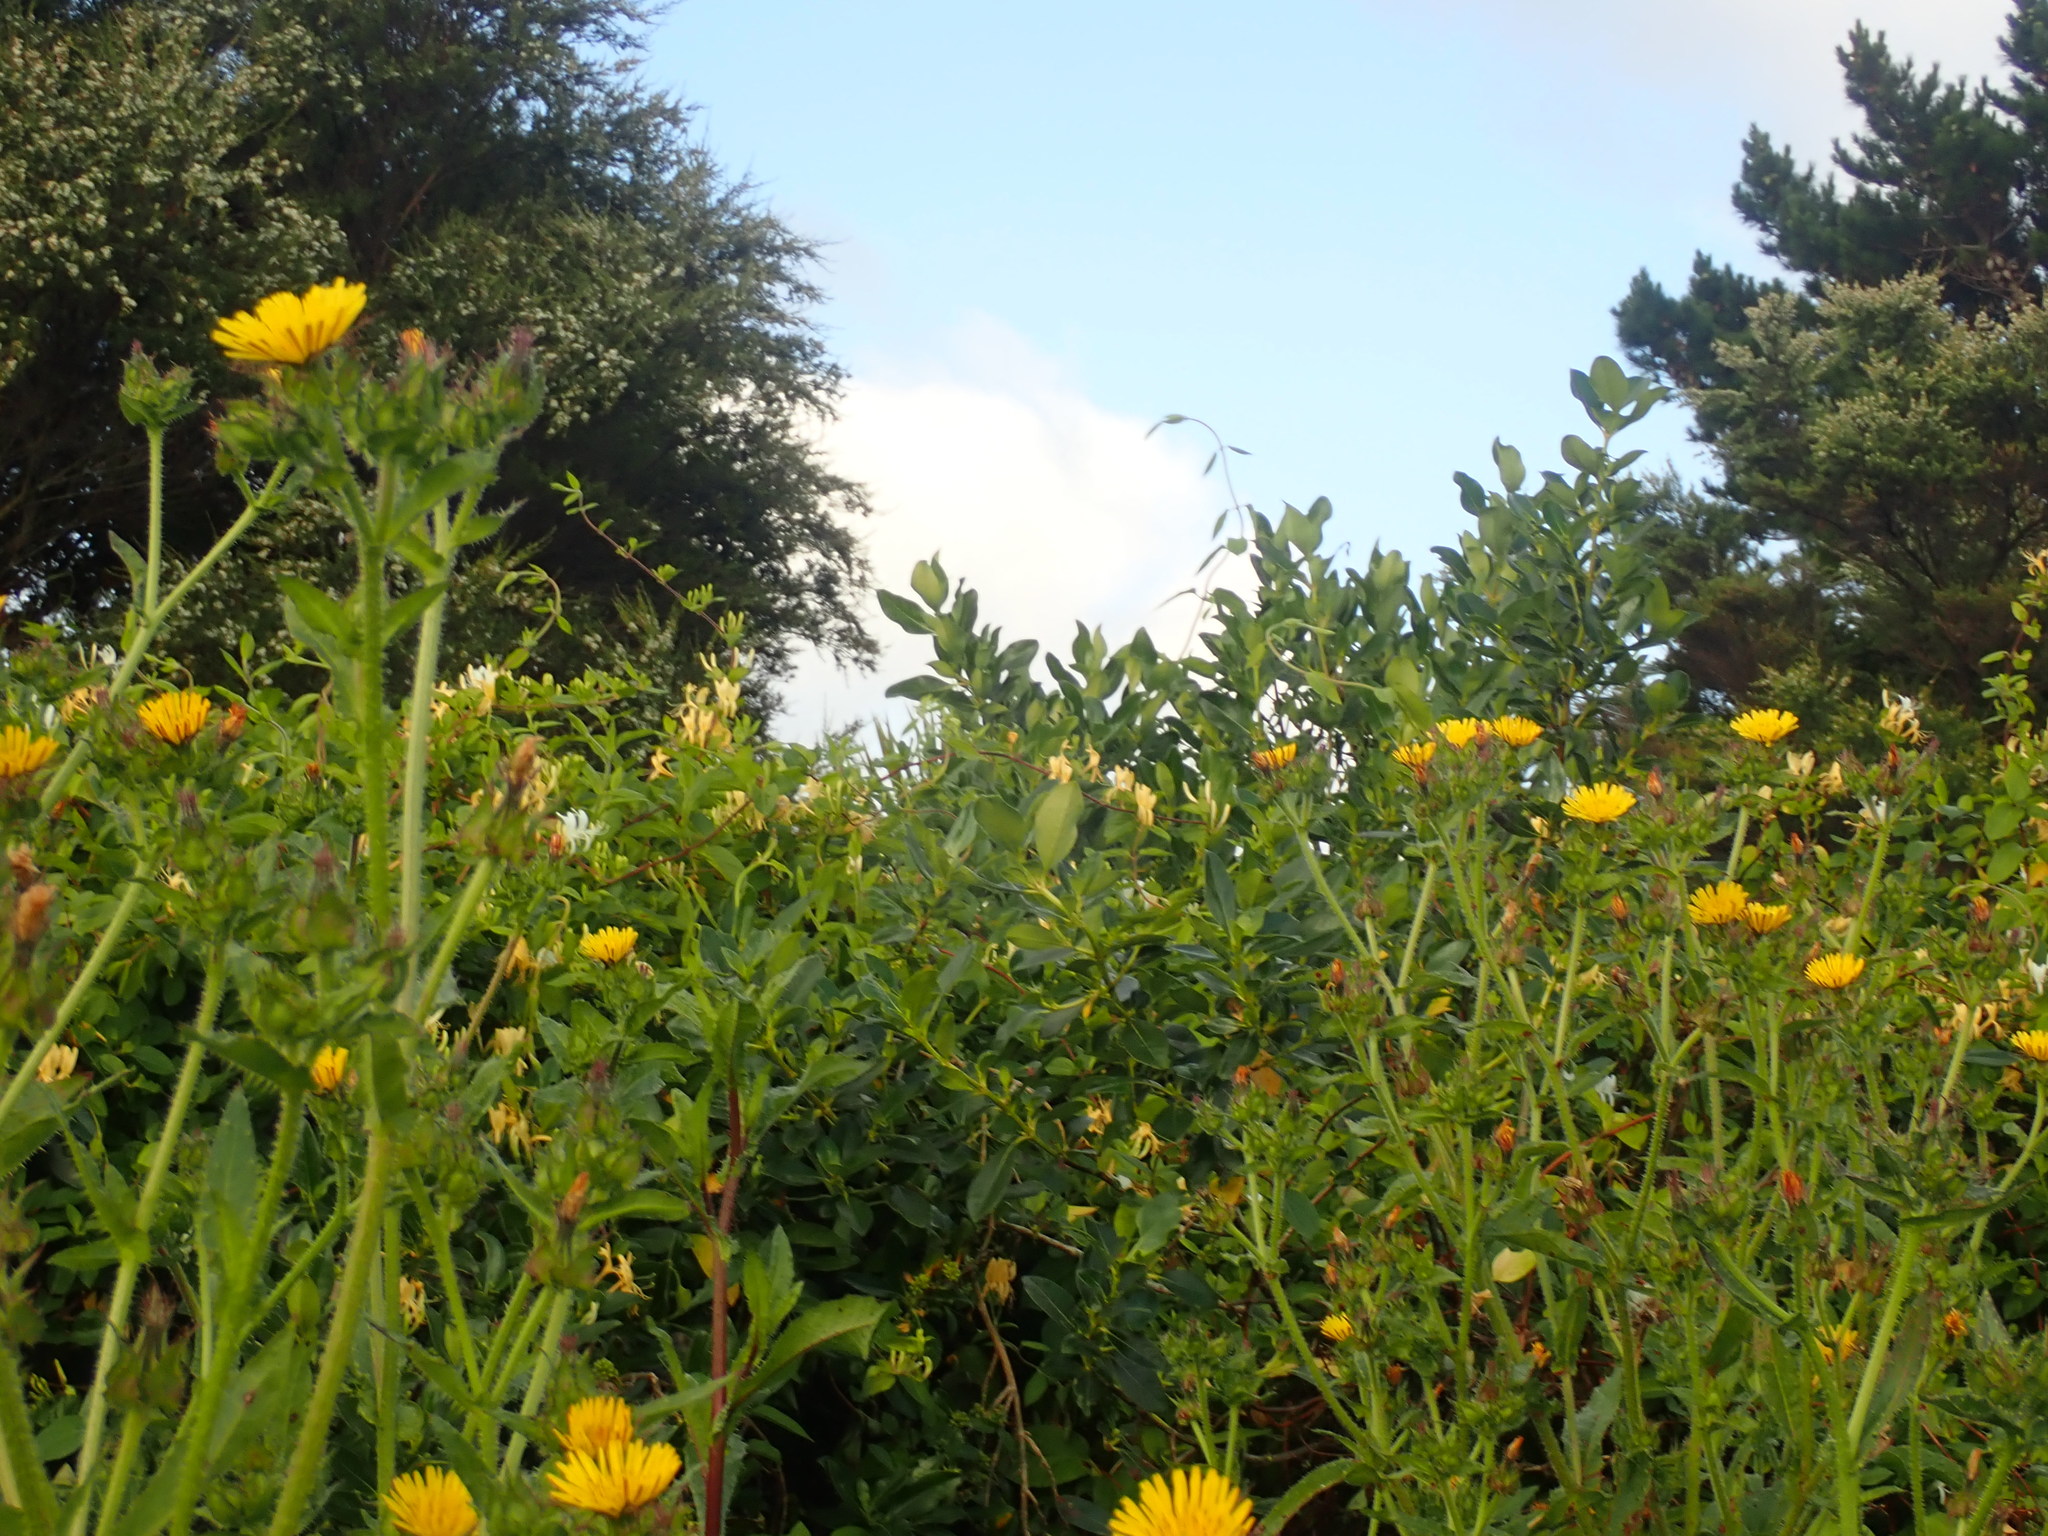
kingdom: Plantae
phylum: Tracheophyta
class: Magnoliopsida
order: Dipsacales
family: Caprifoliaceae
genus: Lonicera
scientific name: Lonicera japonica
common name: Japanese honeysuckle
